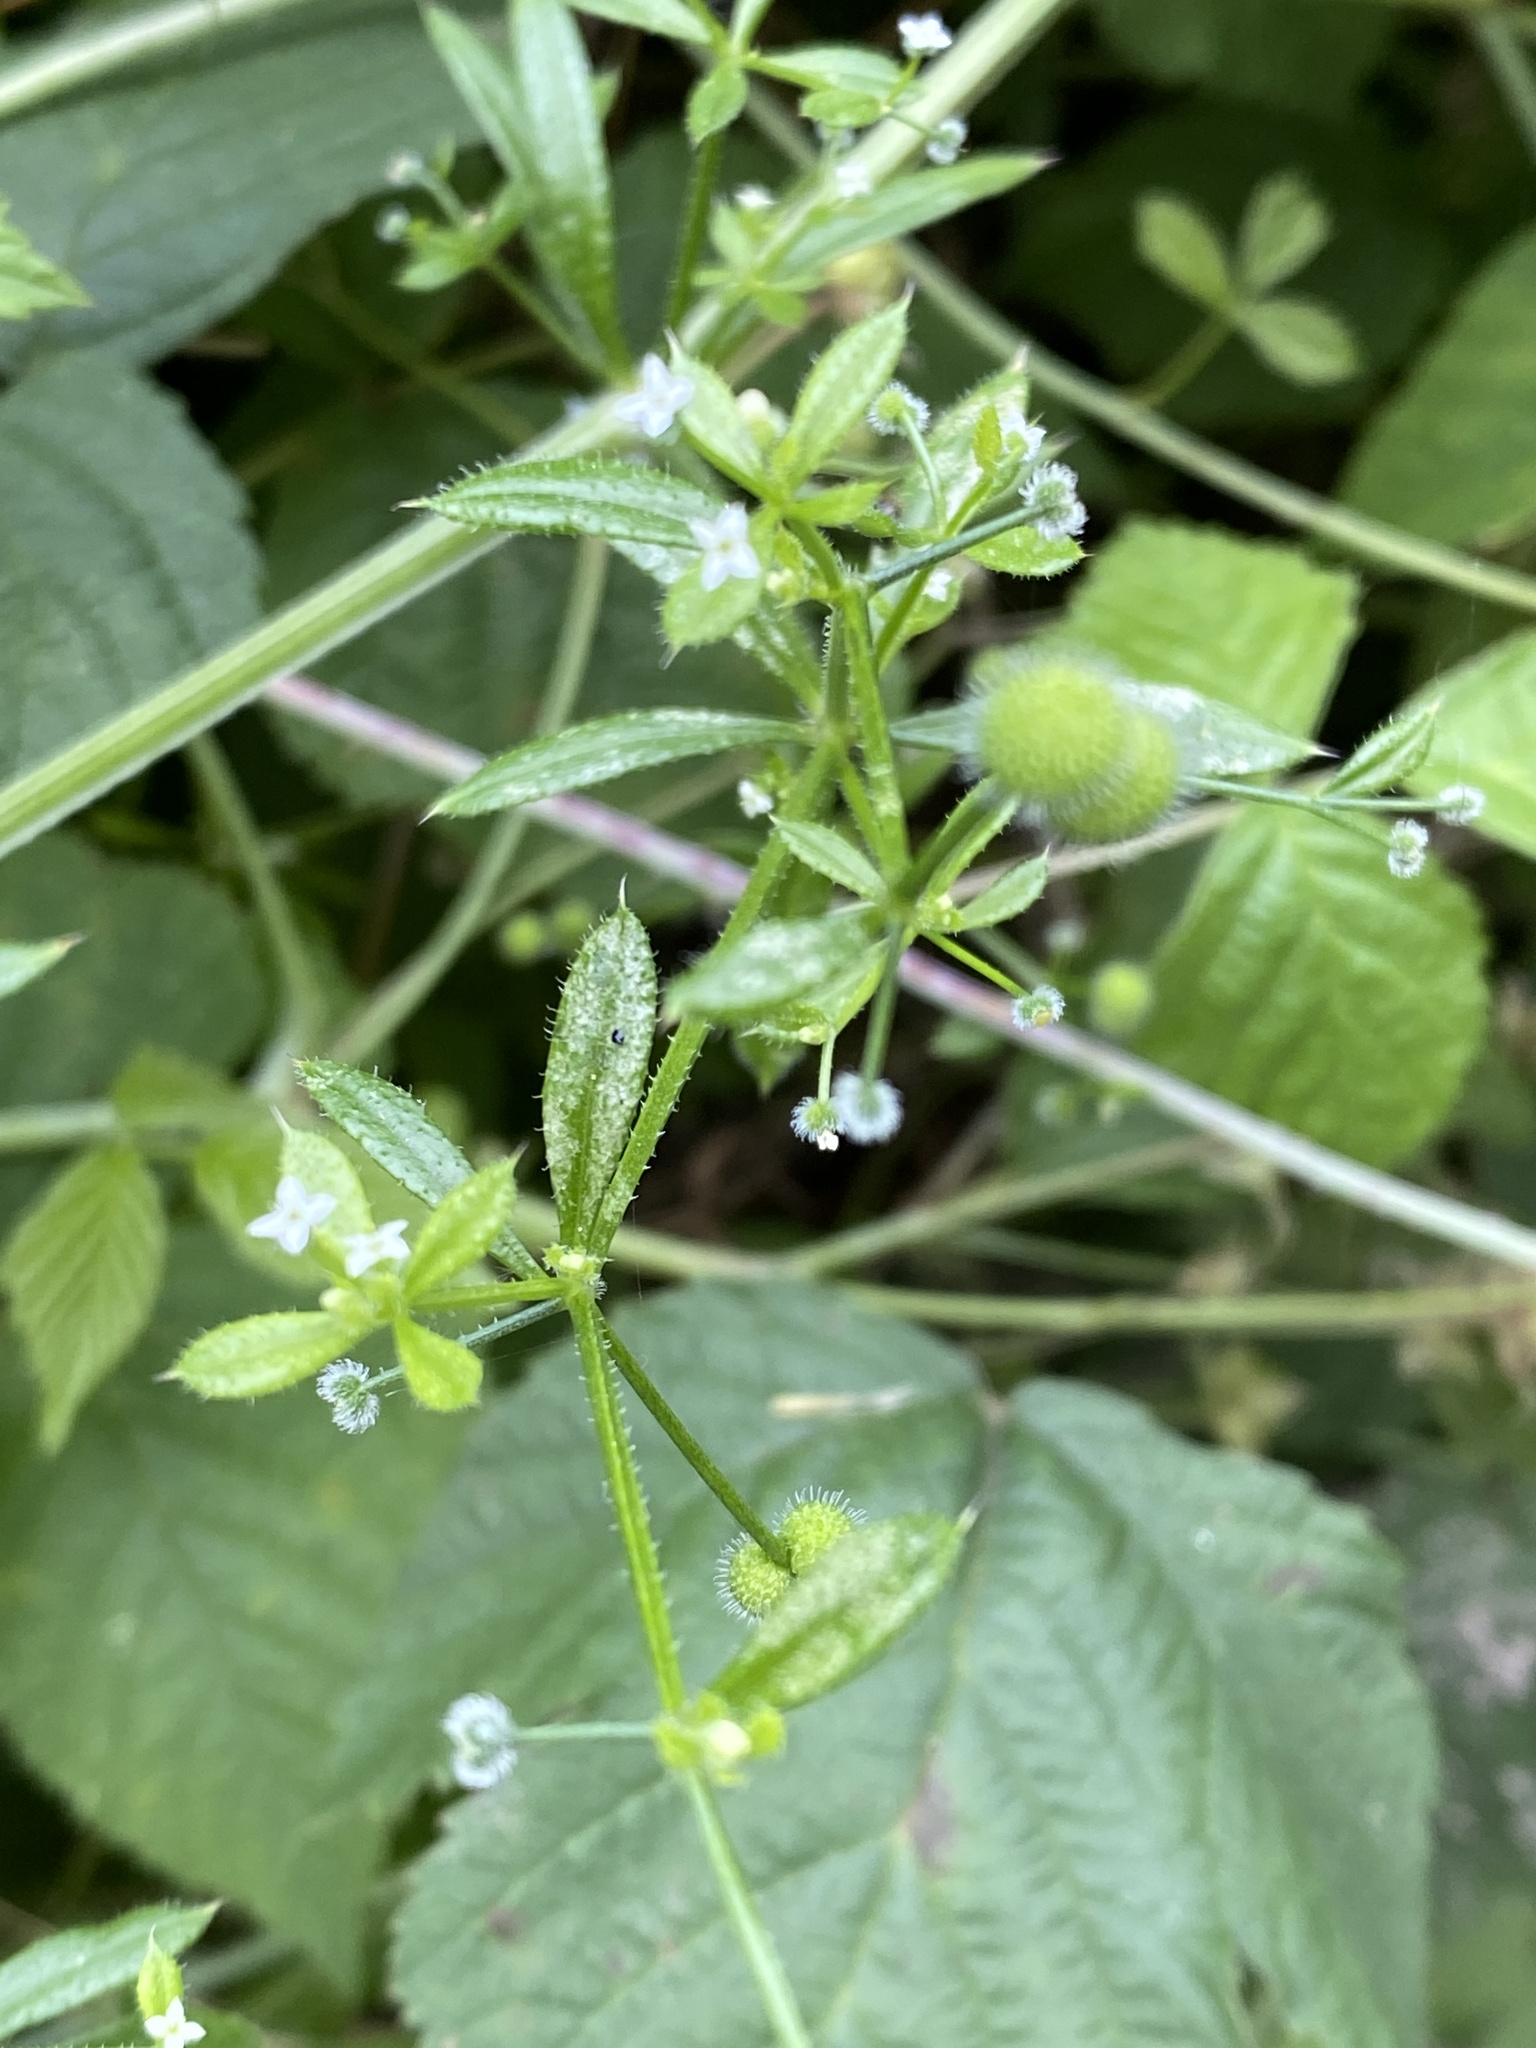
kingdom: Plantae
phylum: Tracheophyta
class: Magnoliopsida
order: Gentianales
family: Rubiaceae
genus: Galium
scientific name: Galium aparine
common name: Cleavers
